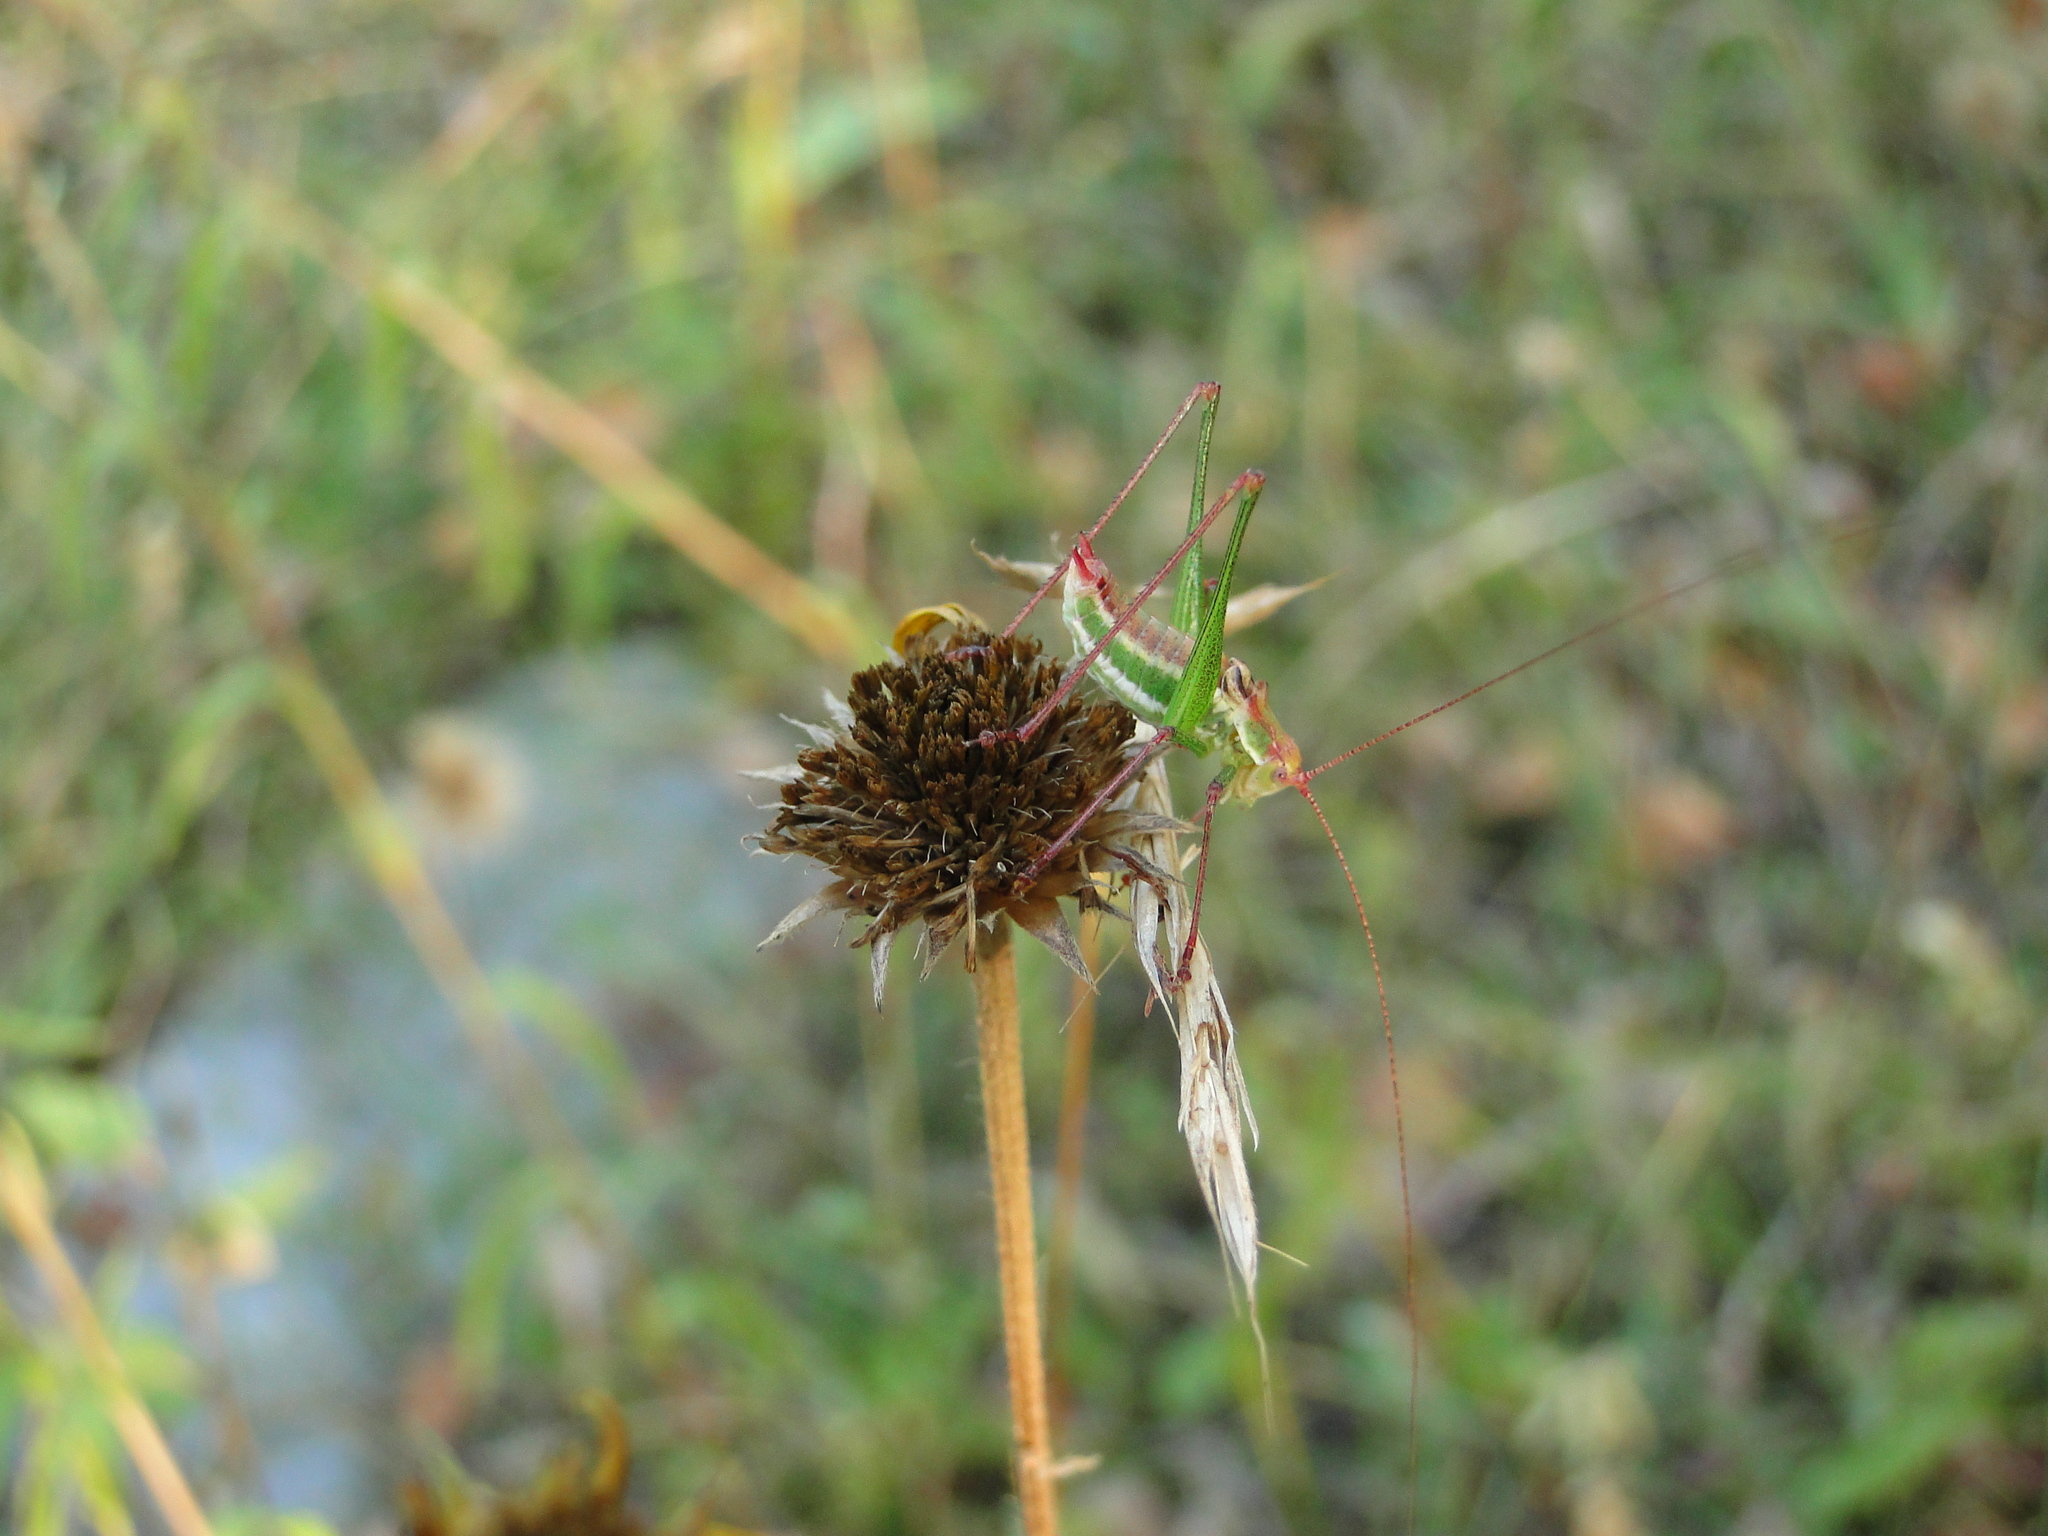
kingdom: Animalia
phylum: Arthropoda
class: Insecta
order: Orthoptera
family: Tettigoniidae
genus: Leptophyes
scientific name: Leptophyes albovittata
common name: Striped bush-cricket
